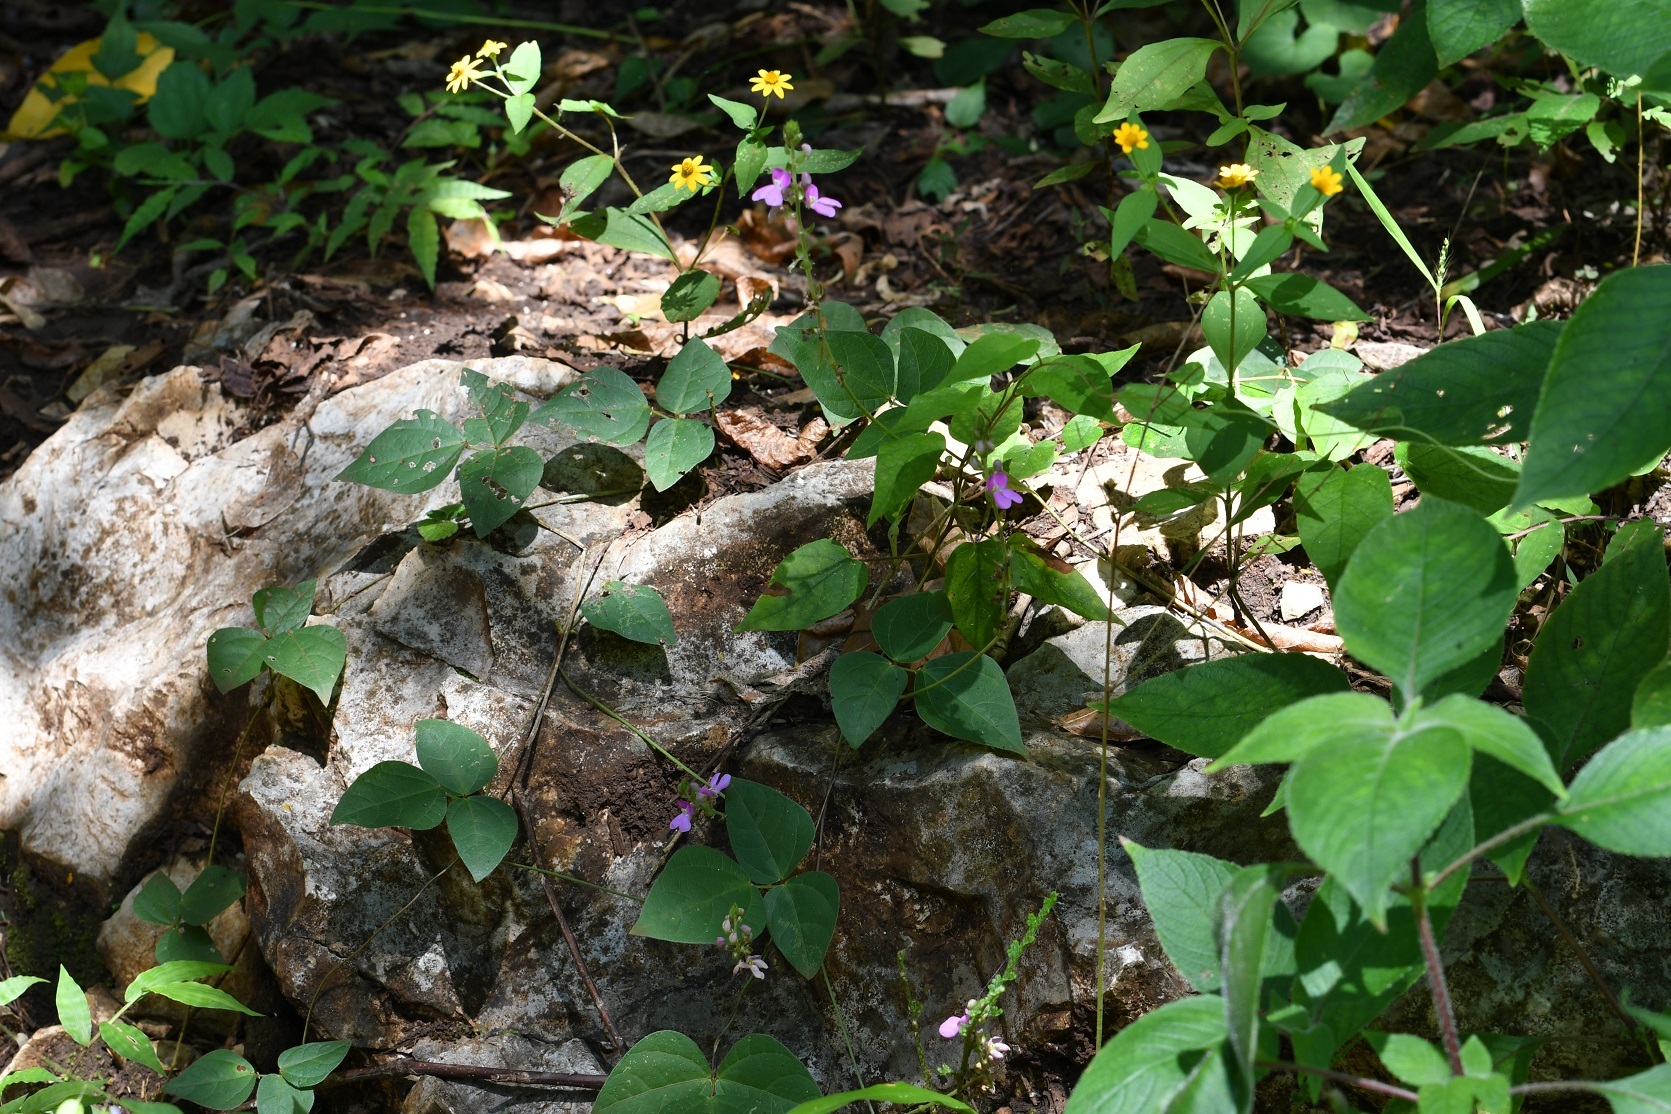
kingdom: Plantae
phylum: Tracheophyta
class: Magnoliopsida
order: Fabales
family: Fabaceae
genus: Phaseolus
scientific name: Phaseolus microcarpus
